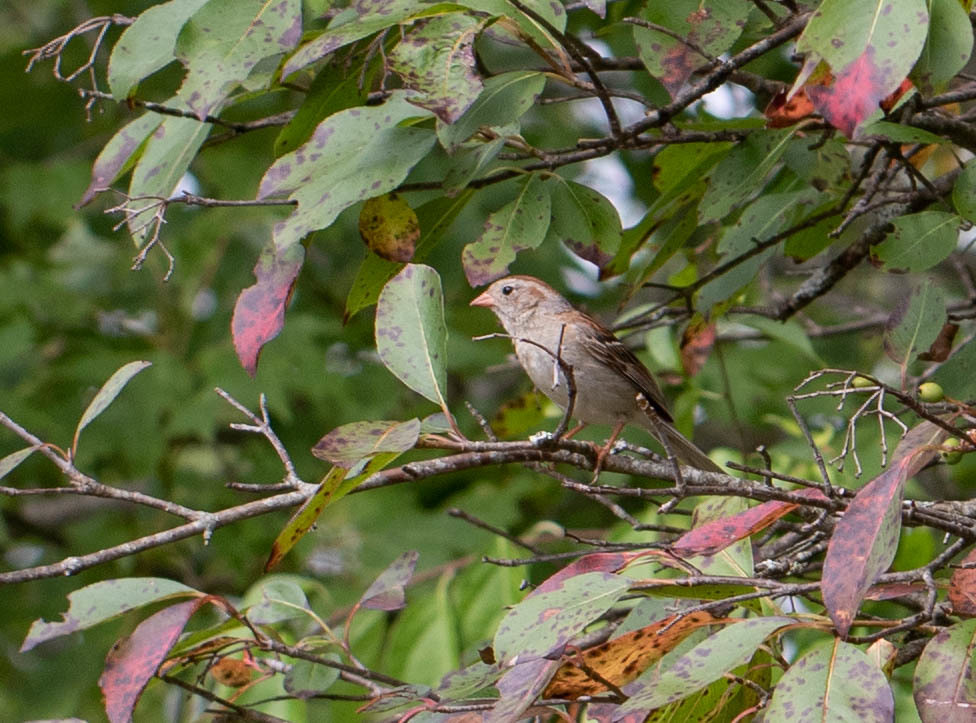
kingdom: Animalia
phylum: Chordata
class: Aves
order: Passeriformes
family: Passerellidae
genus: Spizella
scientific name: Spizella pusilla
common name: Field sparrow
